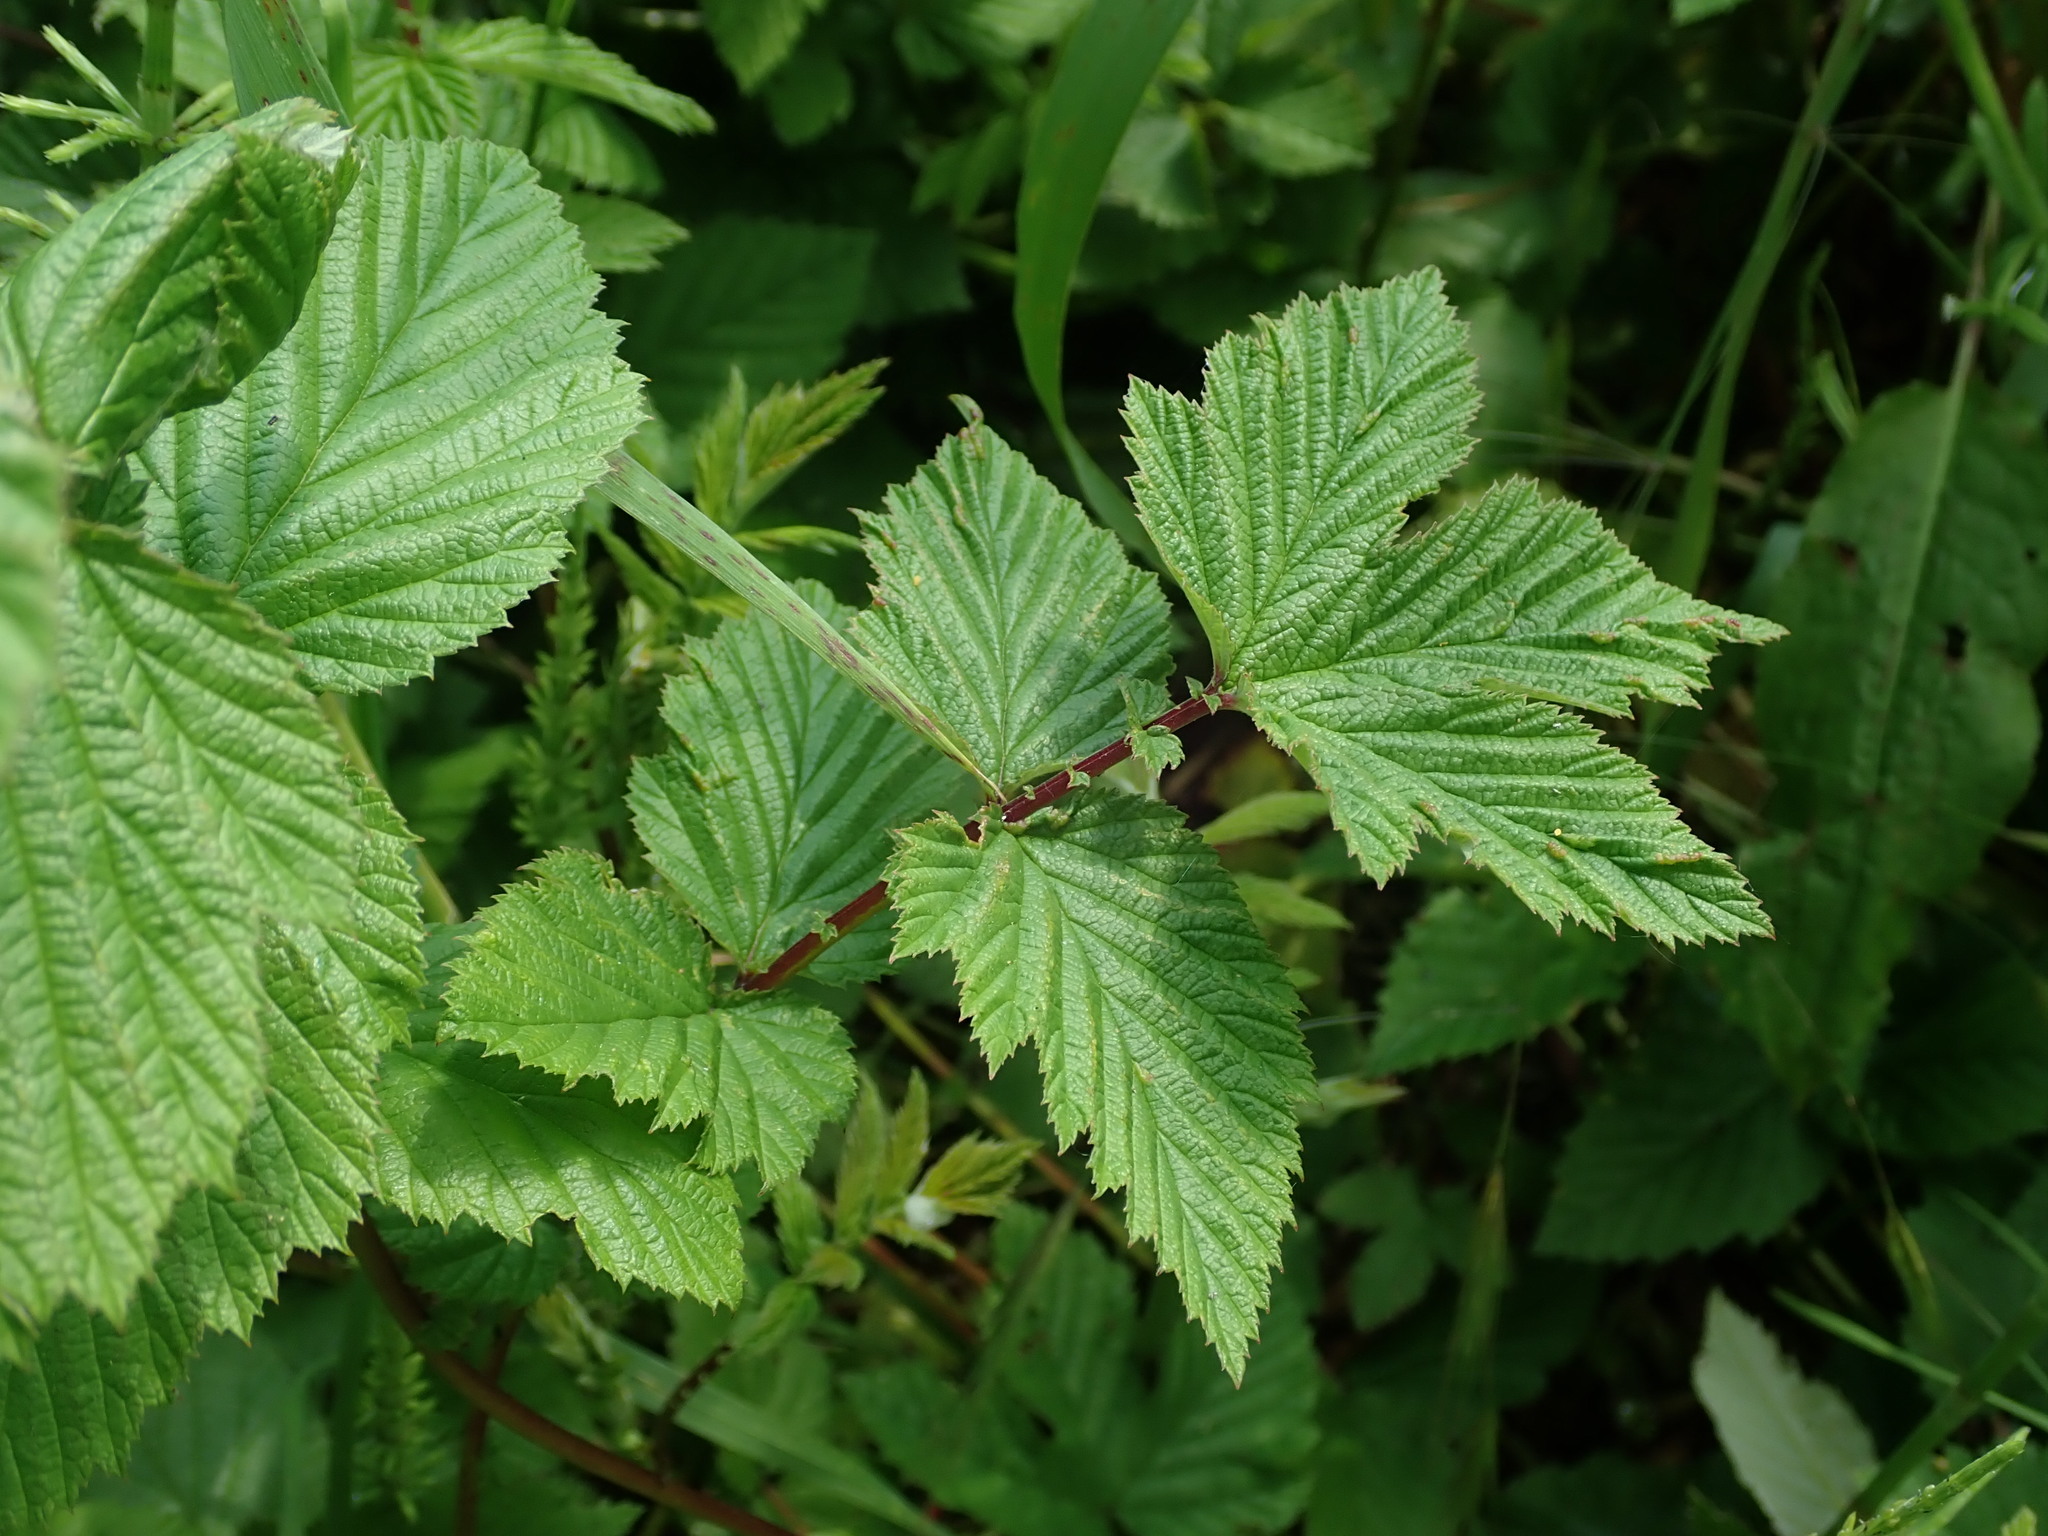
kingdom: Plantae
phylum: Tracheophyta
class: Magnoliopsida
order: Rosales
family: Rosaceae
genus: Filipendula
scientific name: Filipendula ulmaria
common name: Meadowsweet
